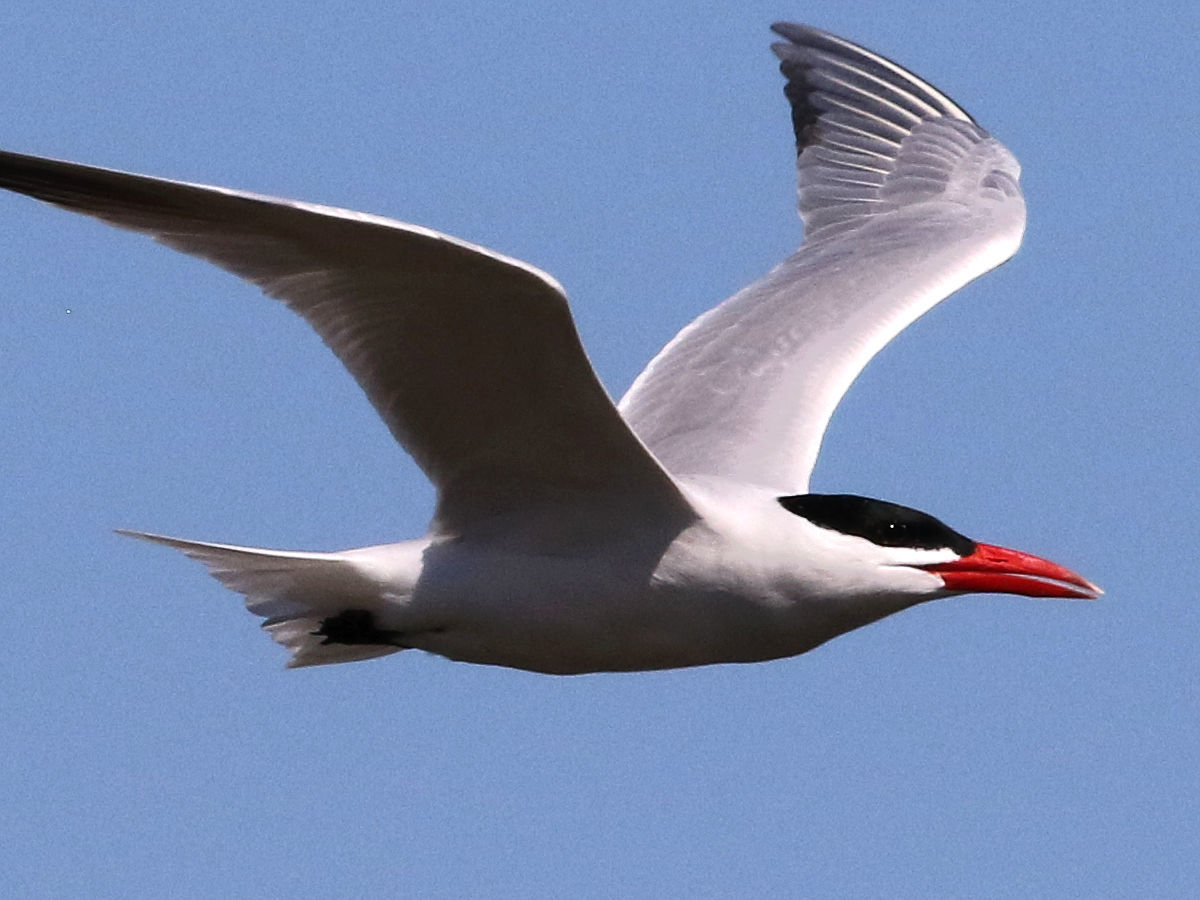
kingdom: Animalia
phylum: Chordata
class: Aves
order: Charadriiformes
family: Laridae
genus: Hydroprogne
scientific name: Hydroprogne caspia
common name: Caspian tern
